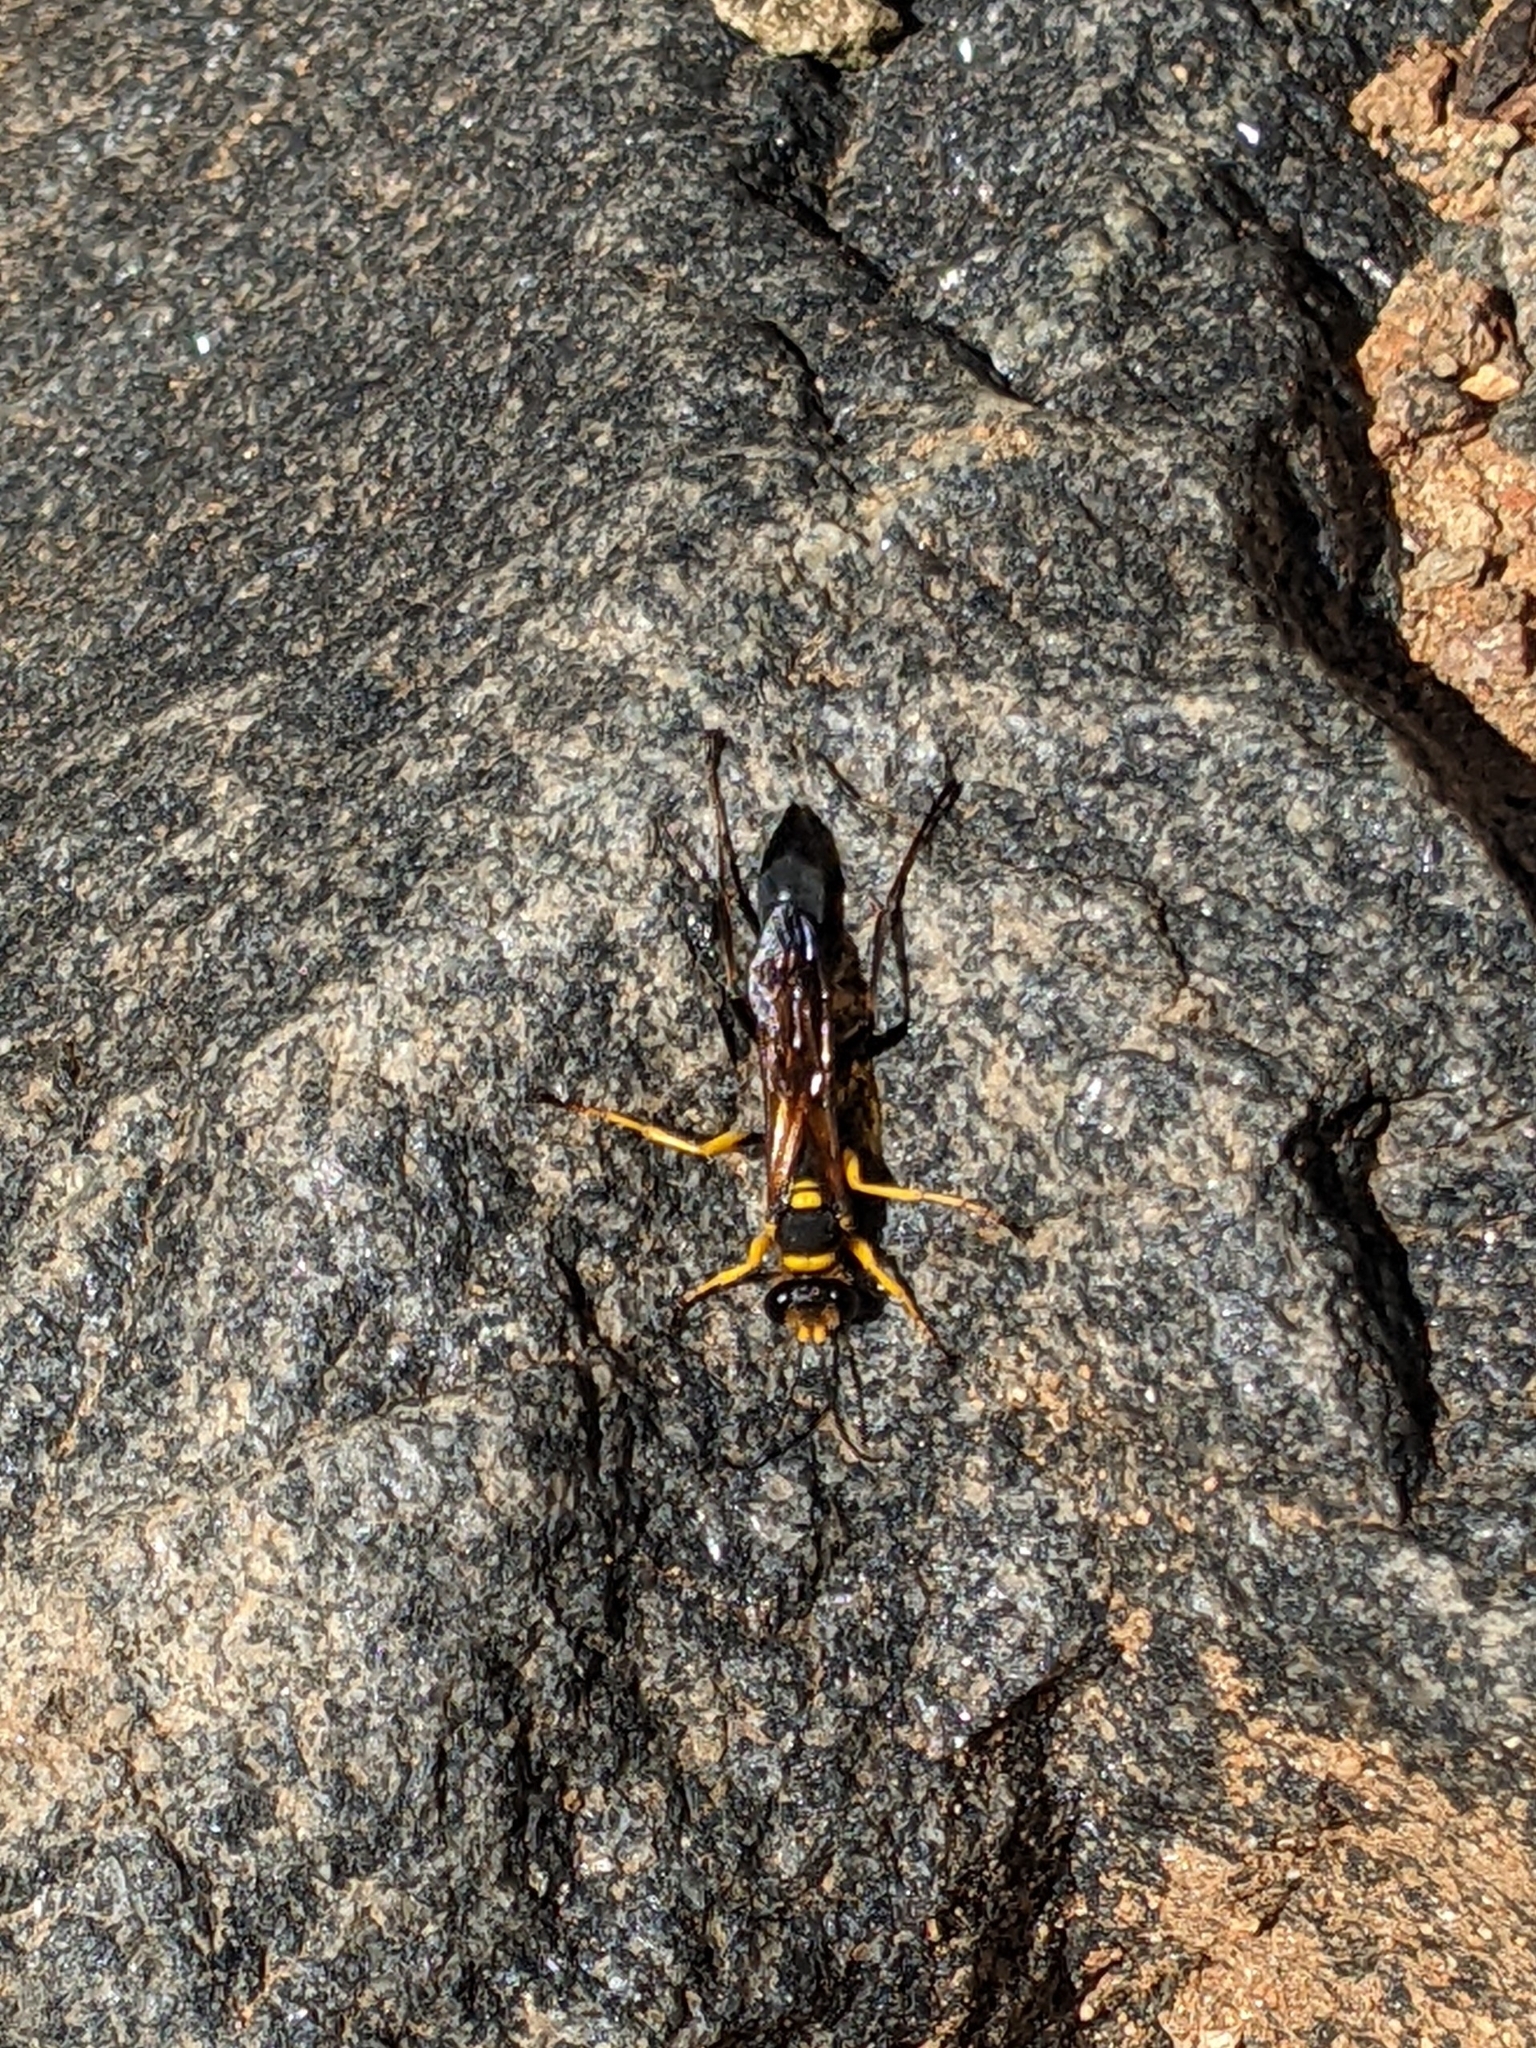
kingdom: Animalia
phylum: Arthropoda
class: Insecta
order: Hymenoptera
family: Sphecidae
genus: Sceliphron
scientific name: Sceliphron asiaticum
